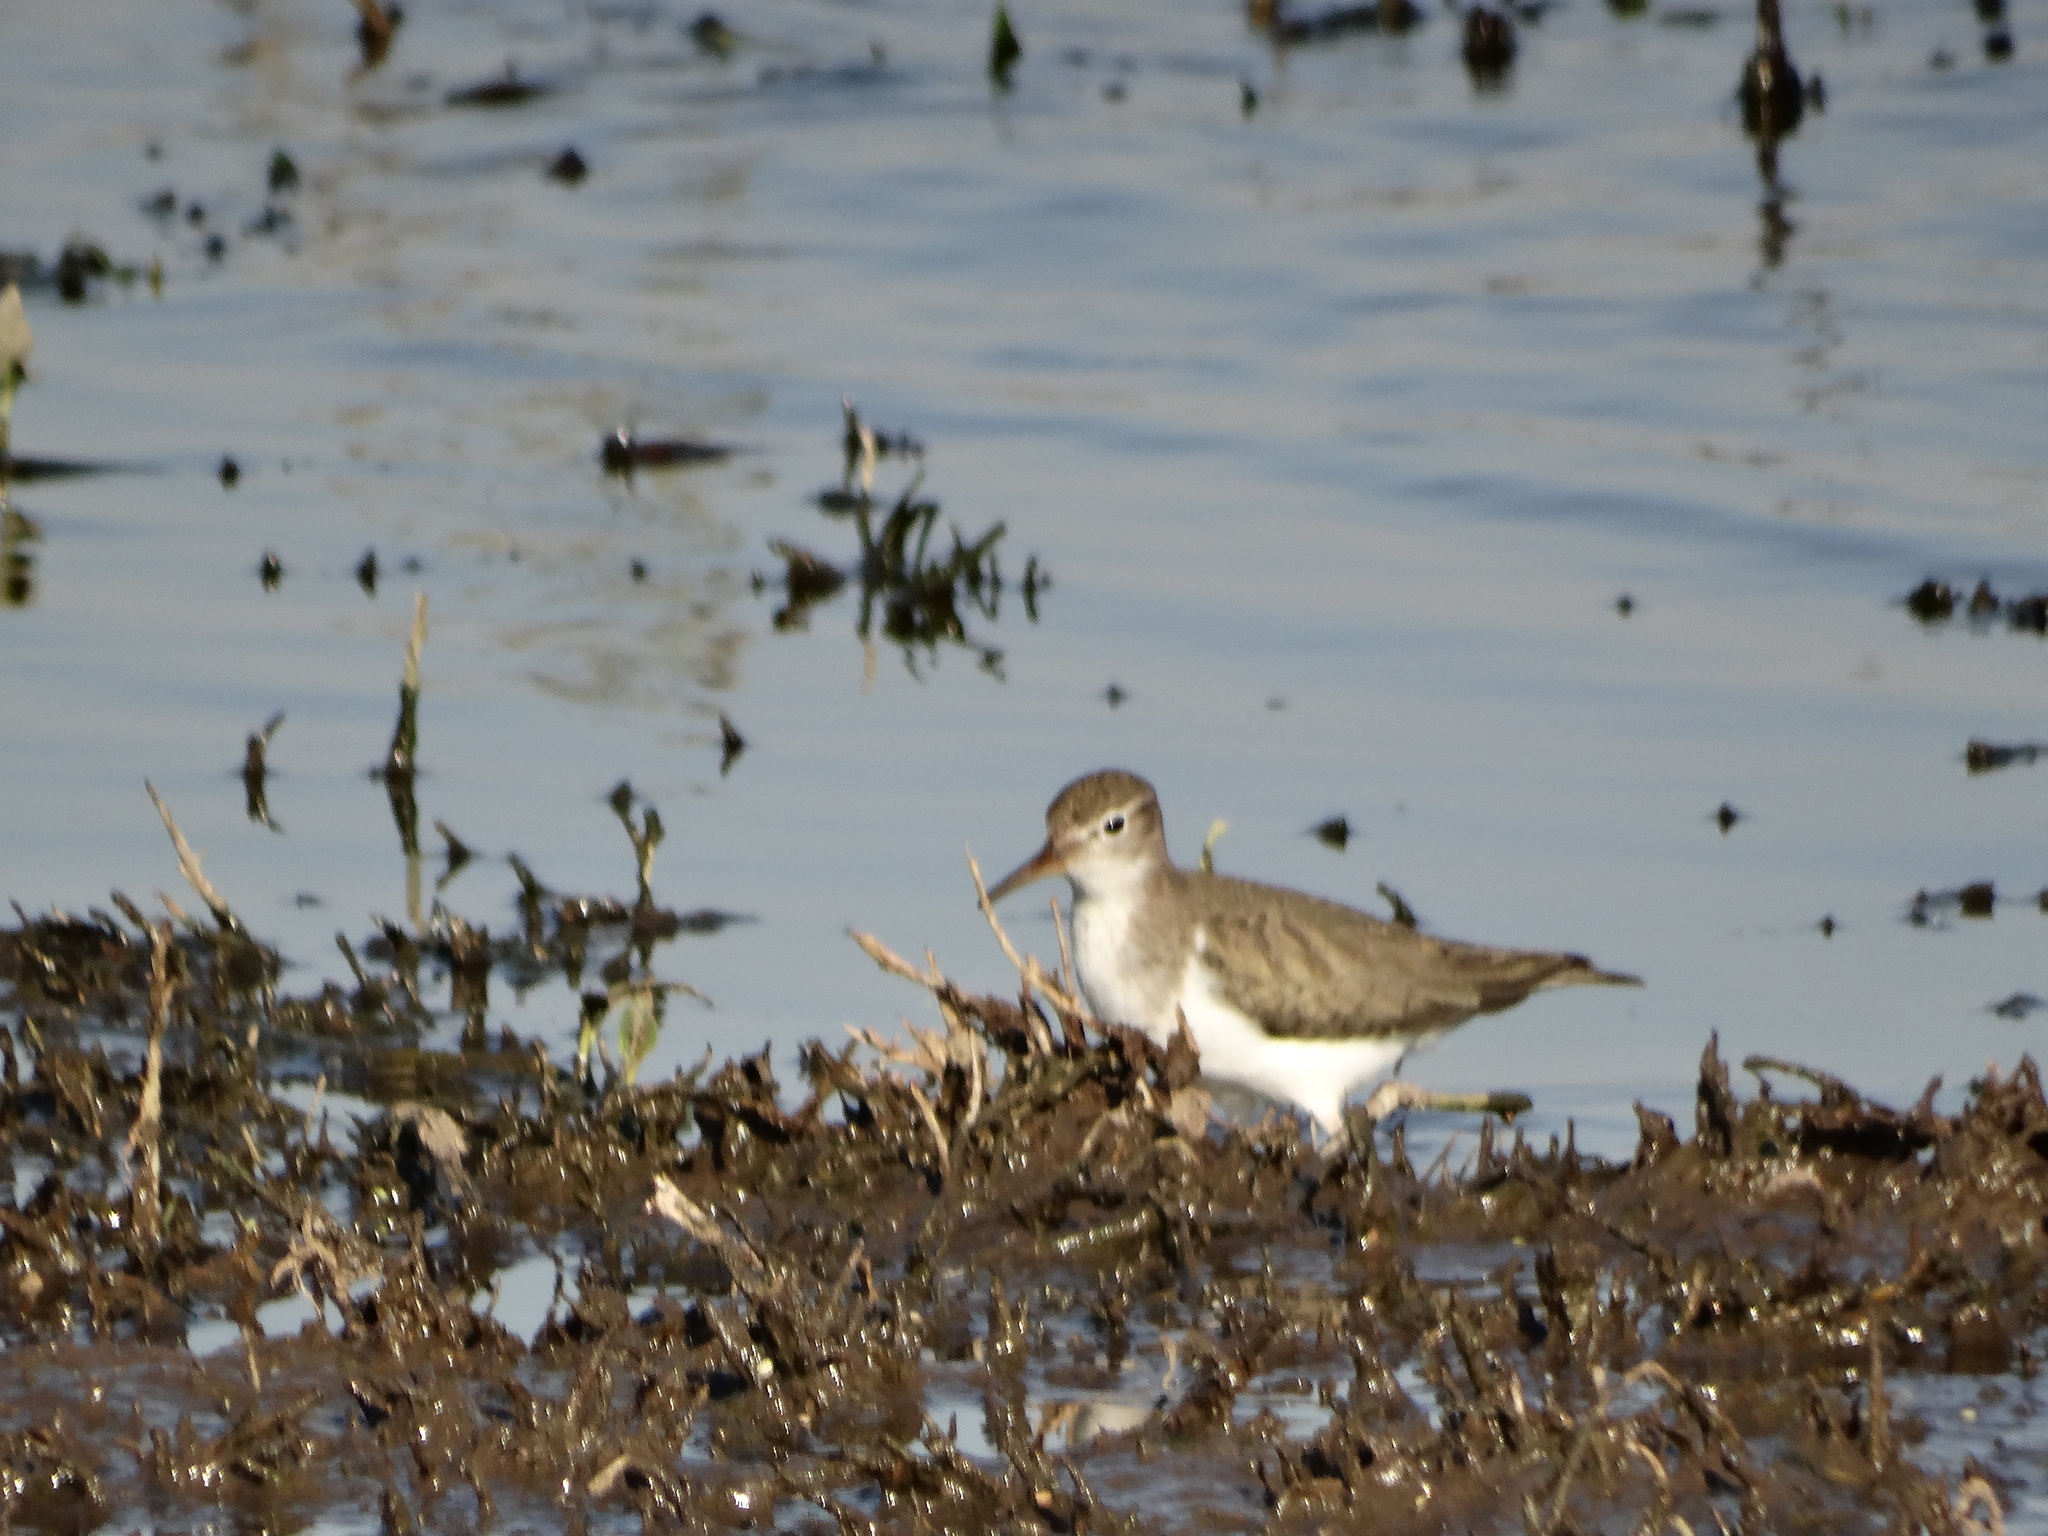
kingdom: Animalia
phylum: Chordata
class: Aves
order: Charadriiformes
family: Scolopacidae
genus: Actitis
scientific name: Actitis macularius
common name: Spotted sandpiper
